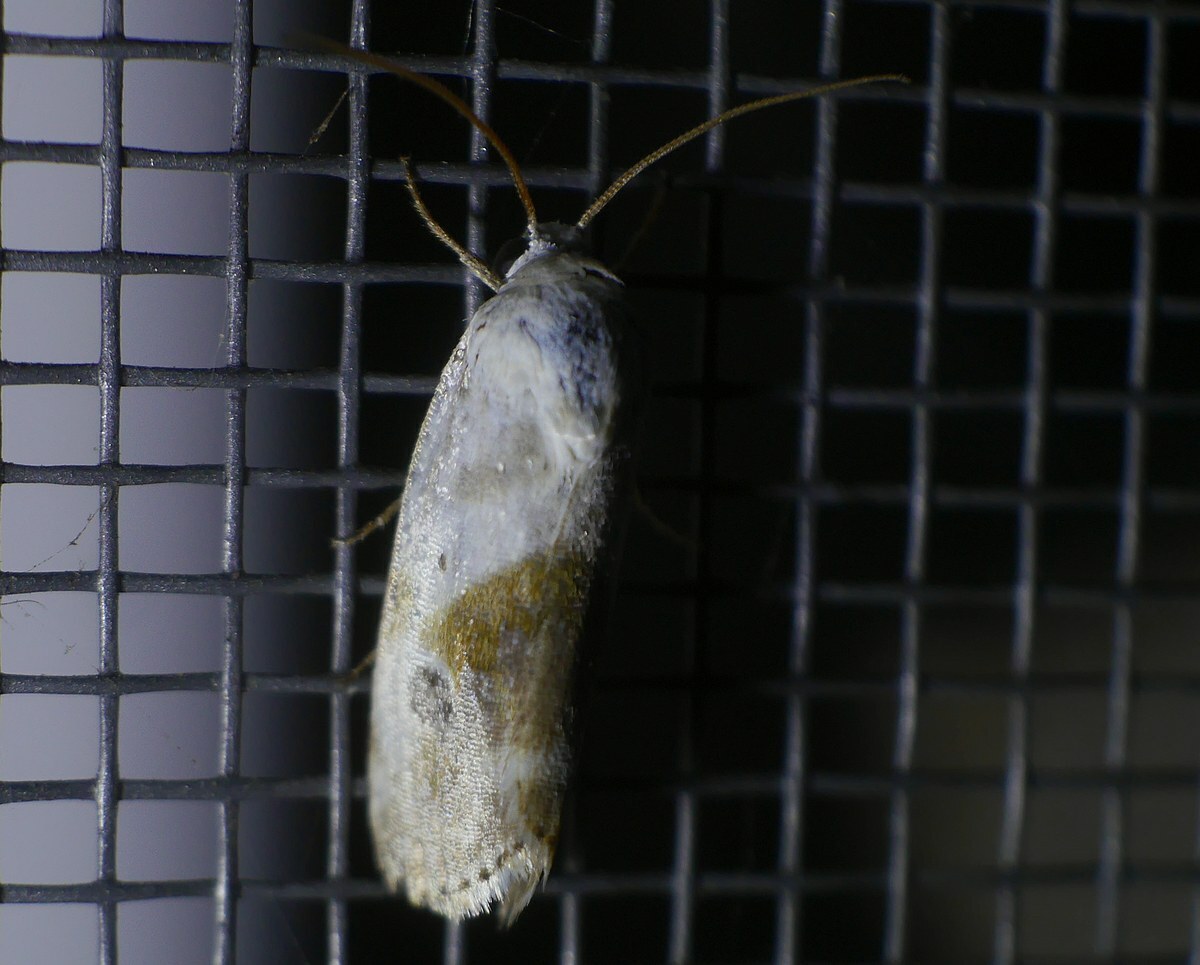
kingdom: Animalia
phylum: Arthropoda
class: Insecta
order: Lepidoptera
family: Noctuidae
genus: Acontia
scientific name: Acontia candefacta
